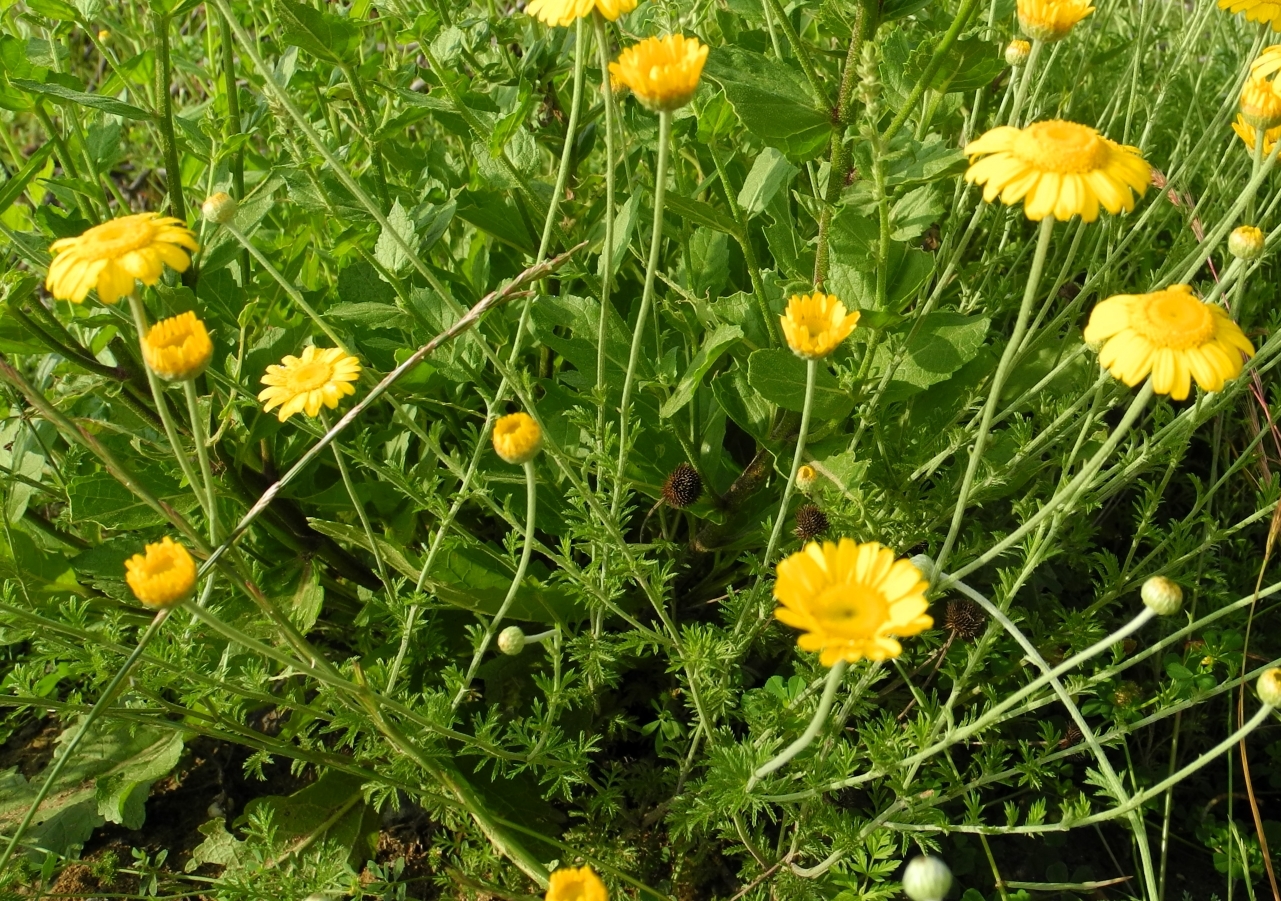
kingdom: Plantae
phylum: Tracheophyta
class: Magnoliopsida
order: Asterales
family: Asteraceae
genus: Cota
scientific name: Cota tinctoria
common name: Golden chamomile
